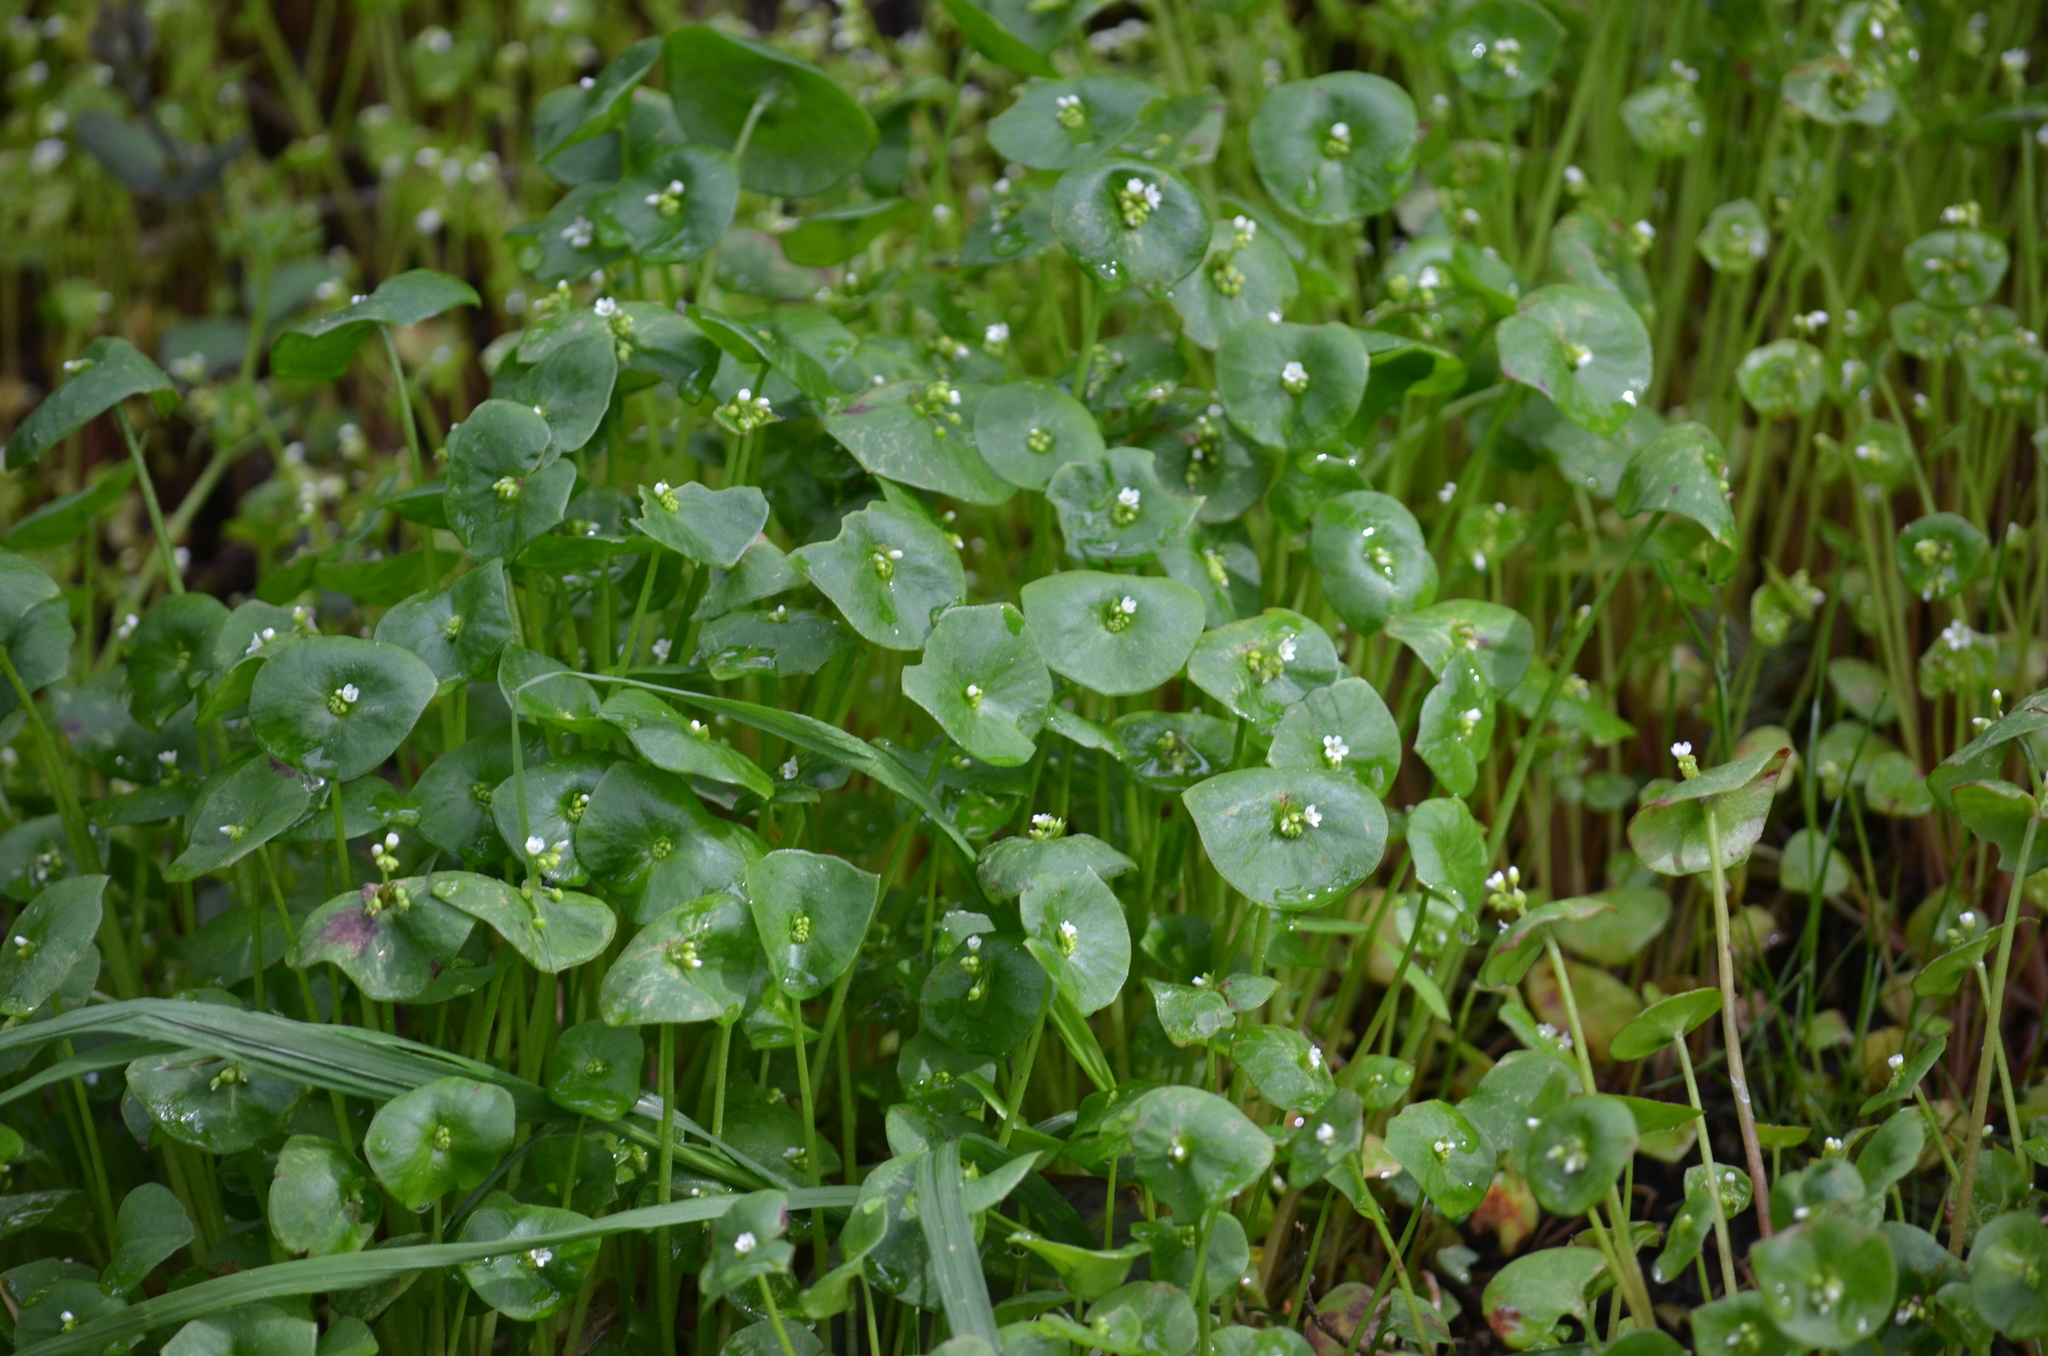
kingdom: Plantae
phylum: Tracheophyta
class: Magnoliopsida
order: Caryophyllales
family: Montiaceae
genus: Claytonia
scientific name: Claytonia perfoliata
